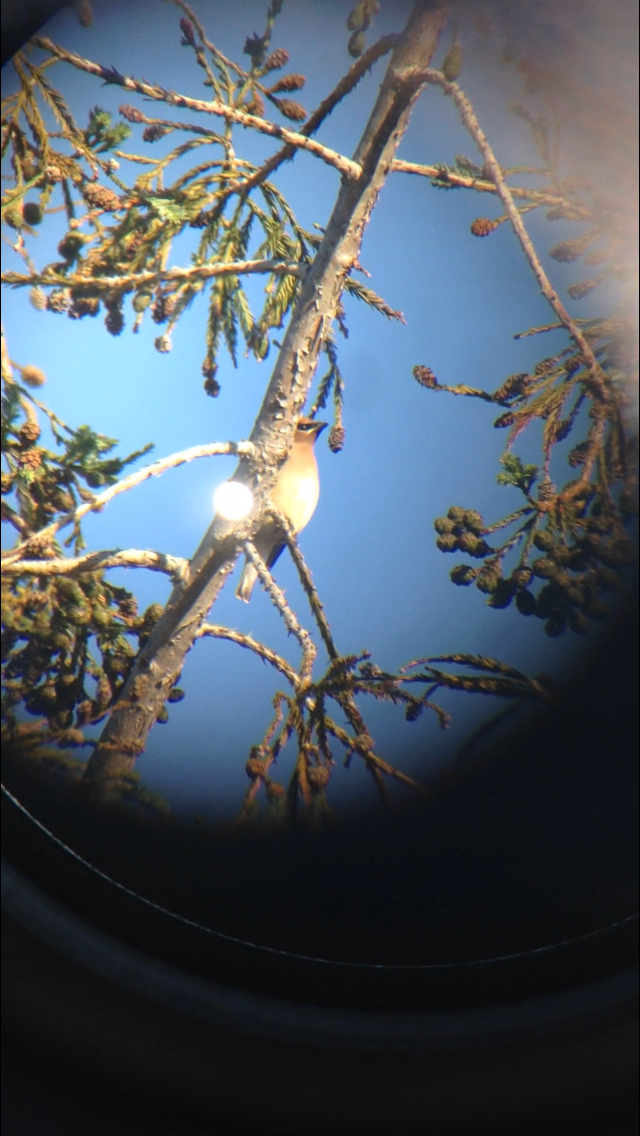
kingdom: Animalia
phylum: Chordata
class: Aves
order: Passeriformes
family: Bombycillidae
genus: Bombycilla
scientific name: Bombycilla cedrorum
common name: Cedar waxwing
